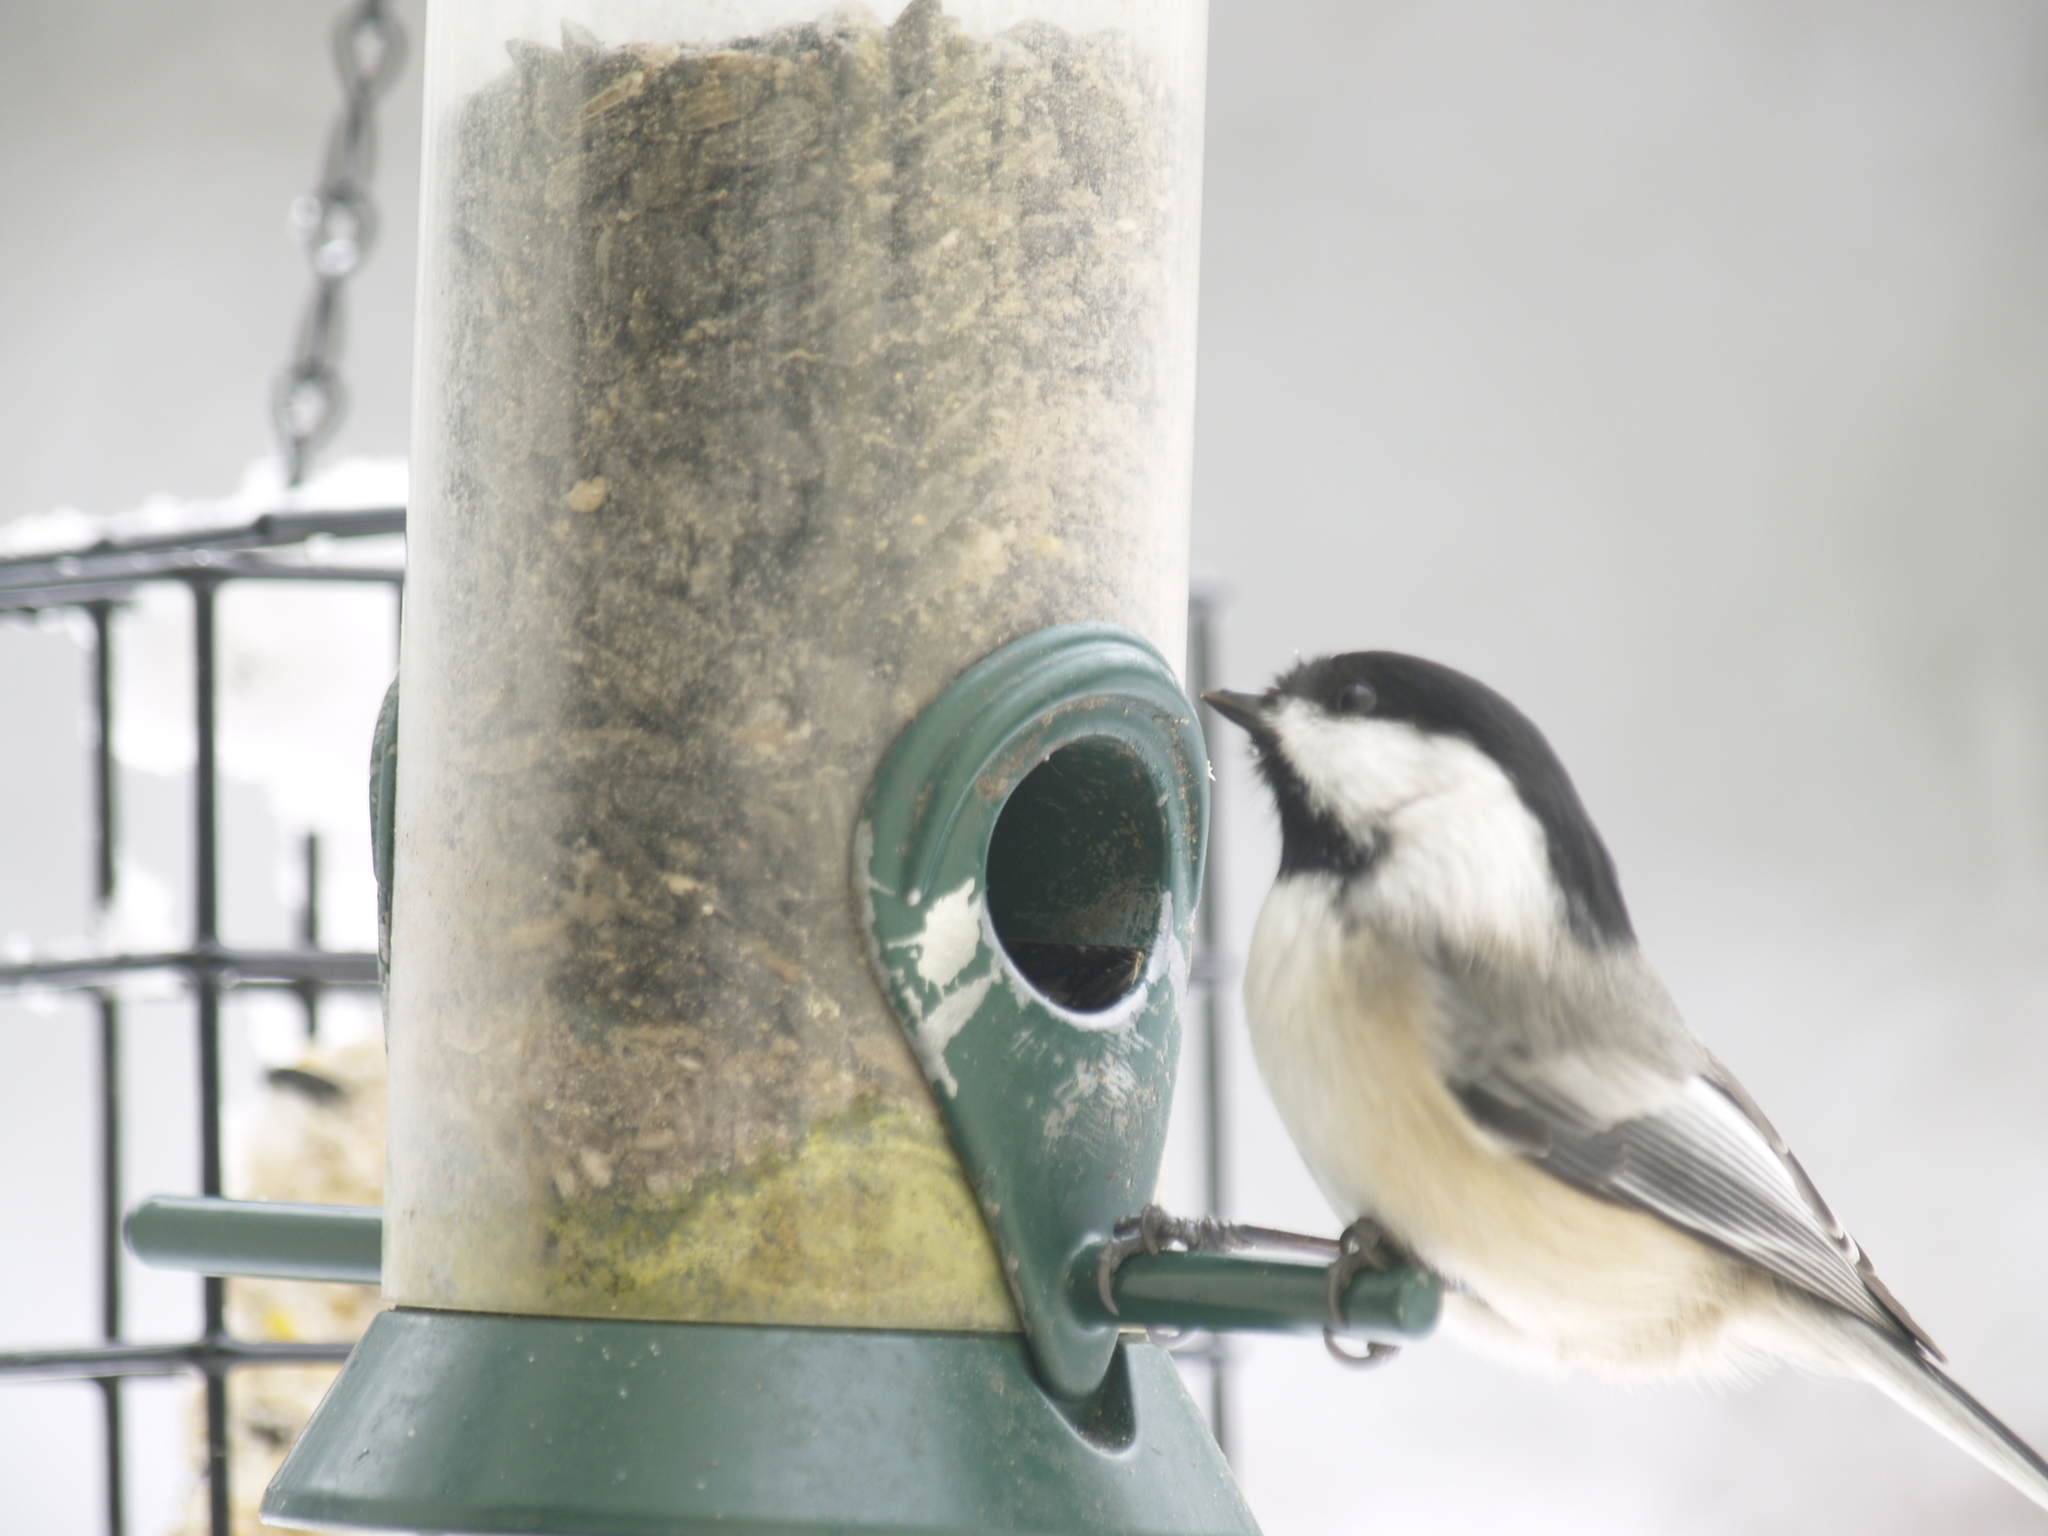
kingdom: Animalia
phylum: Chordata
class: Aves
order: Passeriformes
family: Paridae
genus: Poecile
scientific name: Poecile atricapillus
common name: Black-capped chickadee
